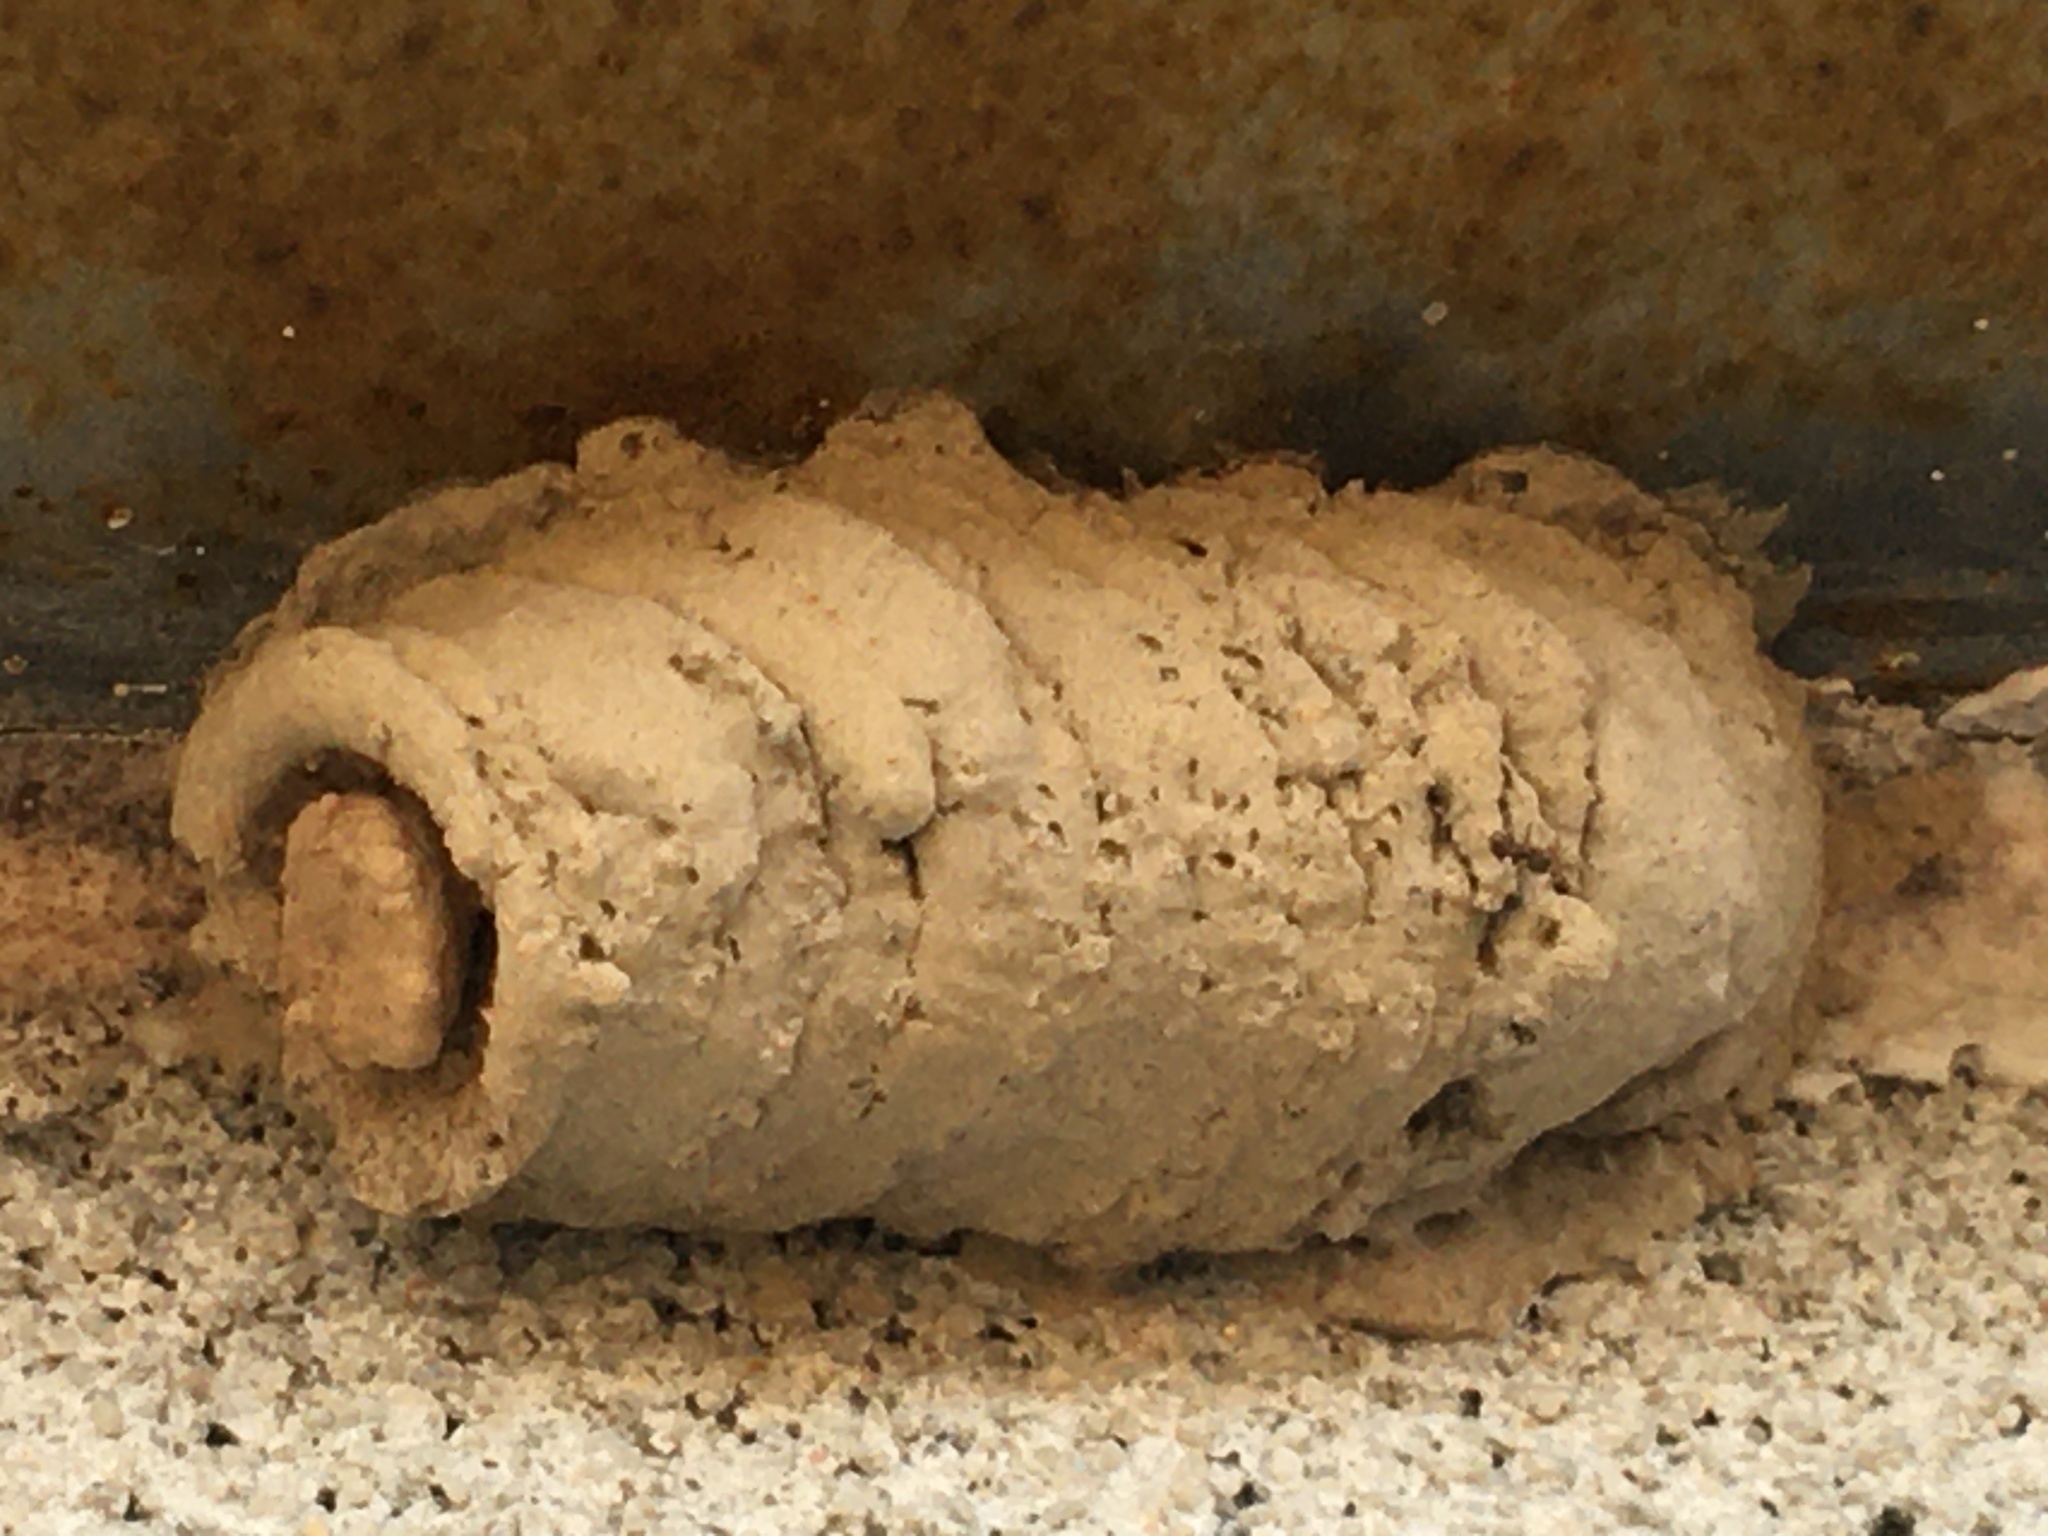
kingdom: Animalia
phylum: Arthropoda
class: Insecta
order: Hymenoptera
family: Sphecidae
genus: Sceliphron
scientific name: Sceliphron caementarium
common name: Mud dauber
